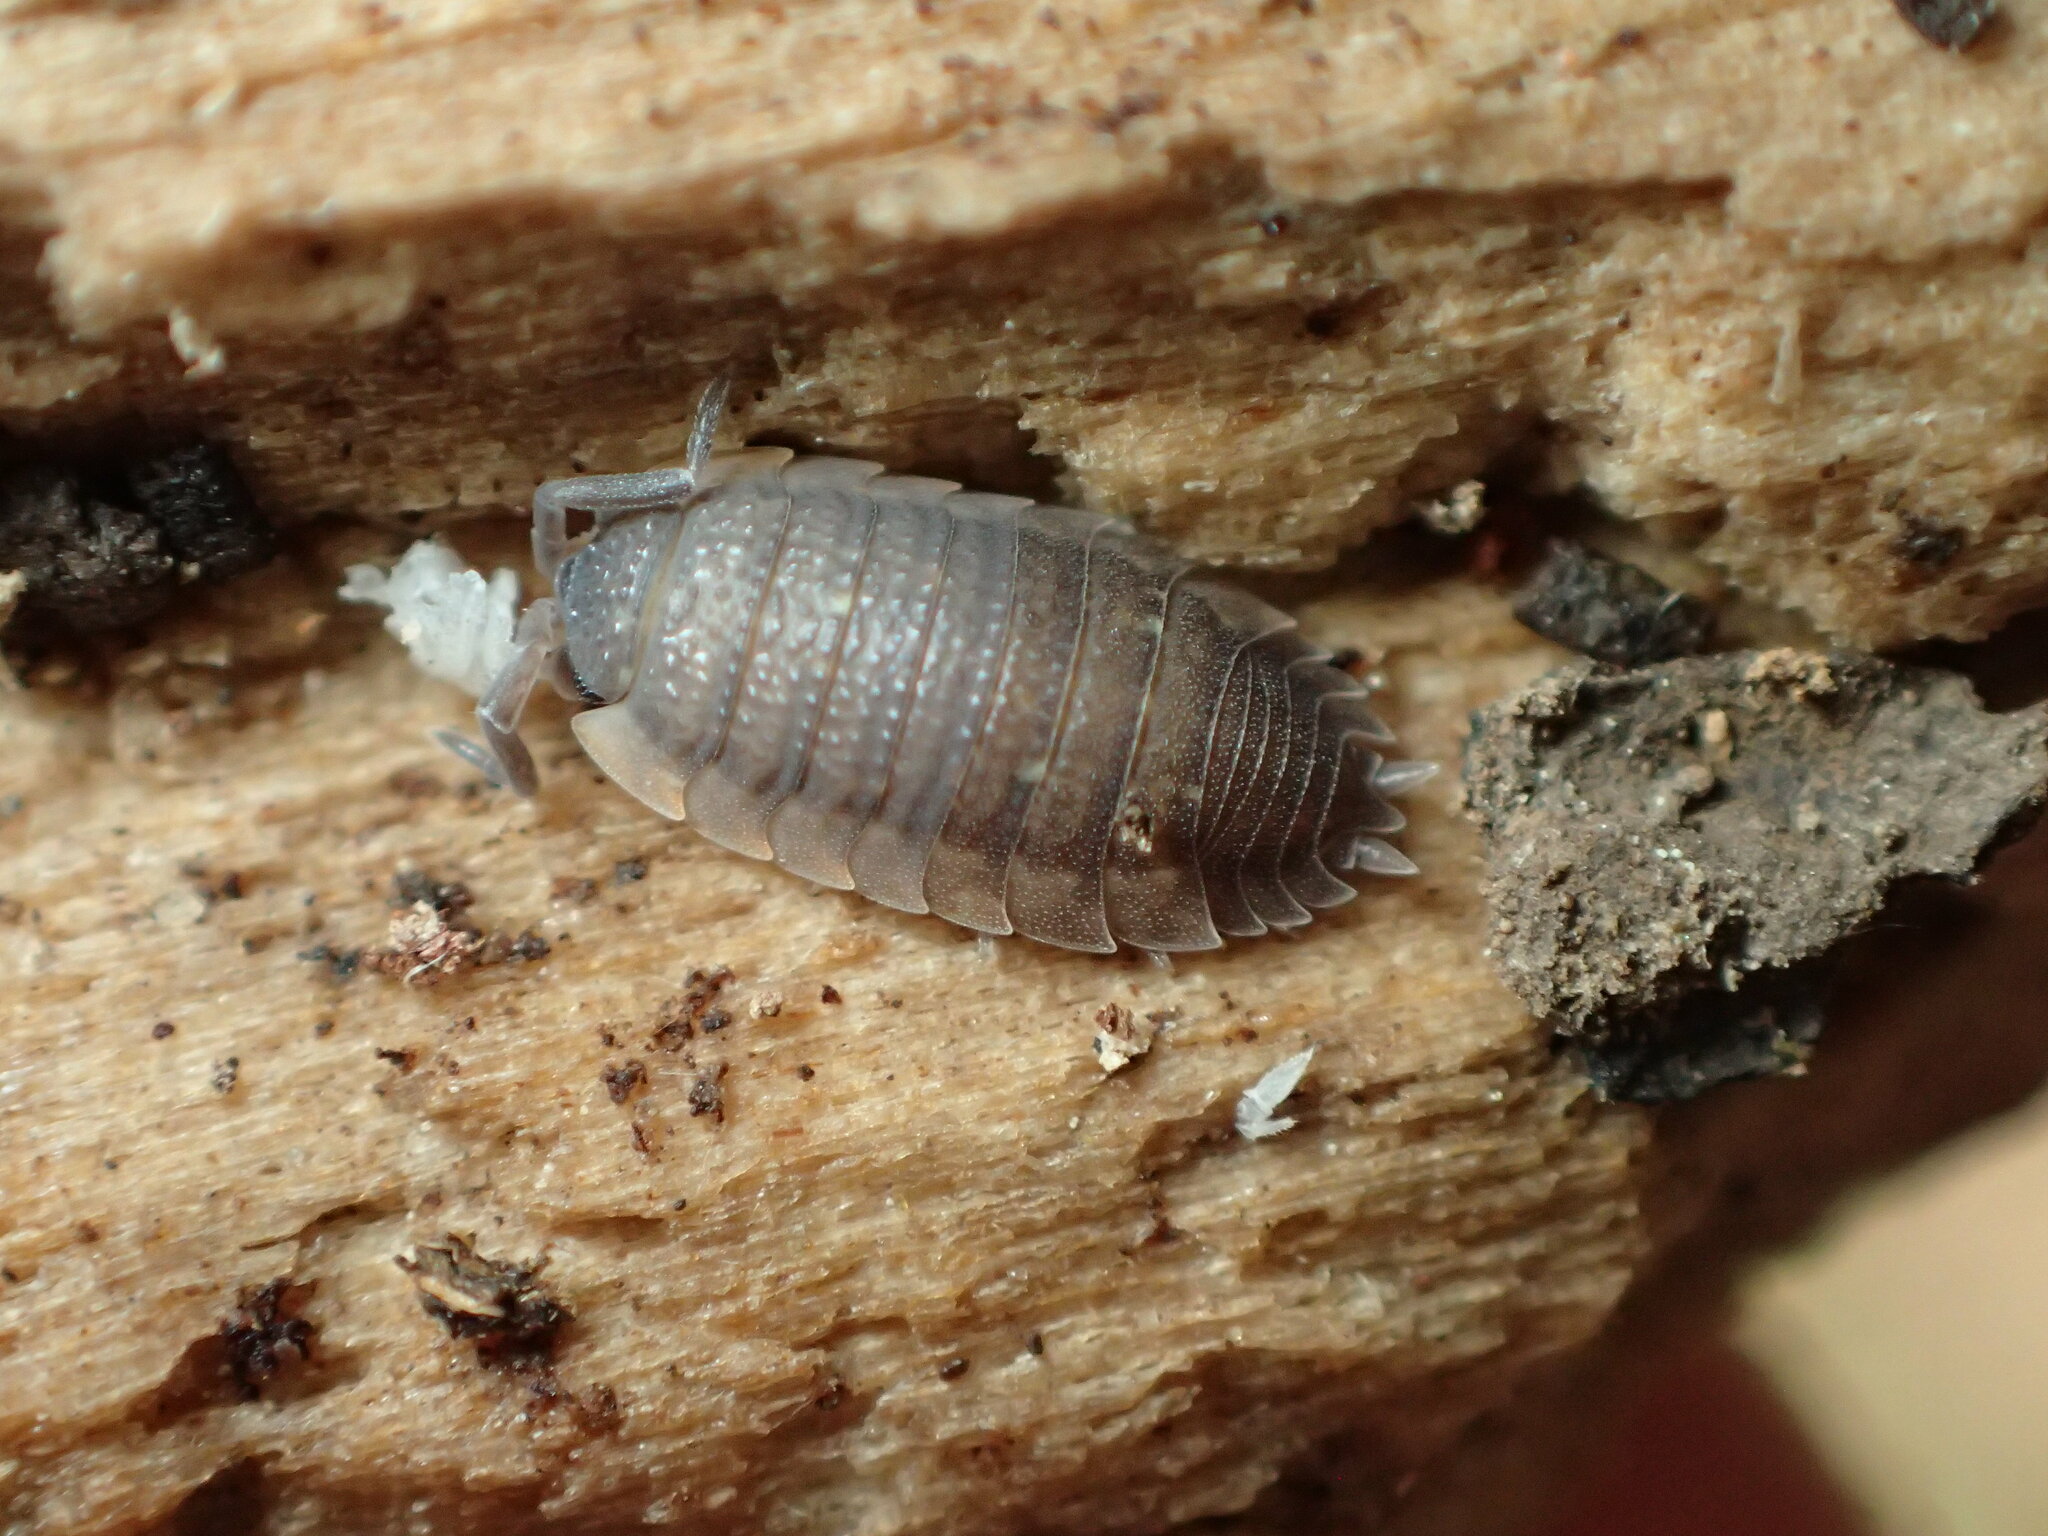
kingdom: Animalia
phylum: Arthropoda
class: Malacostraca
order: Isopoda
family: Porcellionidae
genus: Porcellio
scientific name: Porcellio scaber
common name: Common rough woodlouse
